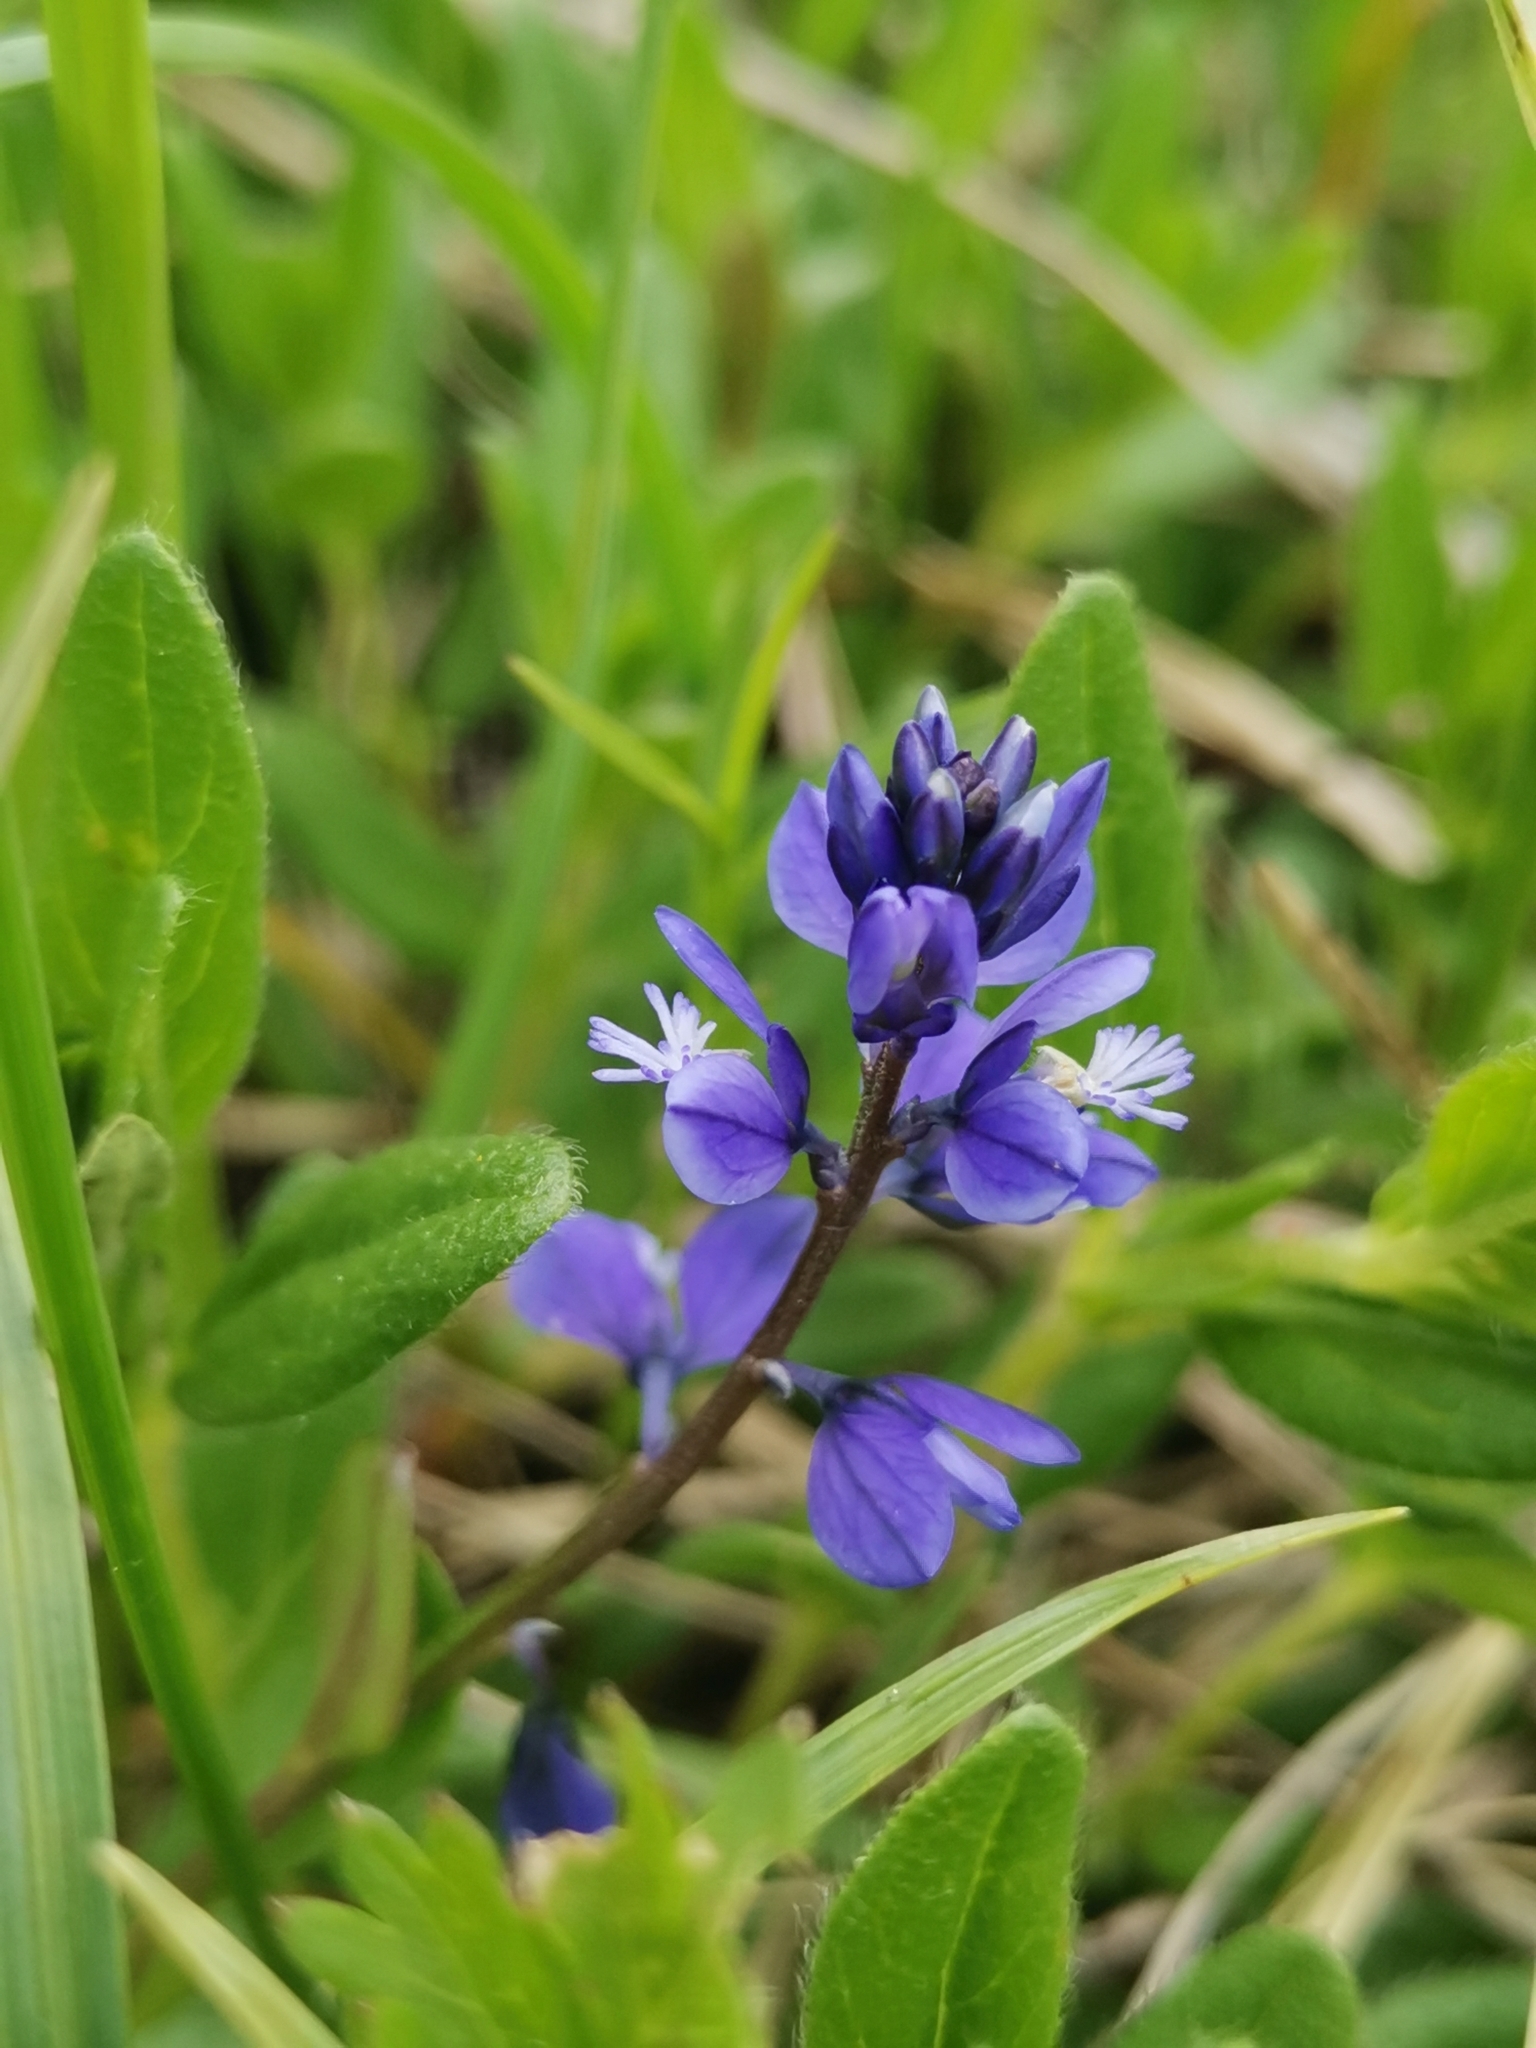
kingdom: Plantae
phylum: Tracheophyta
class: Magnoliopsida
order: Fabales
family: Polygalaceae
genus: Polygala
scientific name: Polygala alpestris
